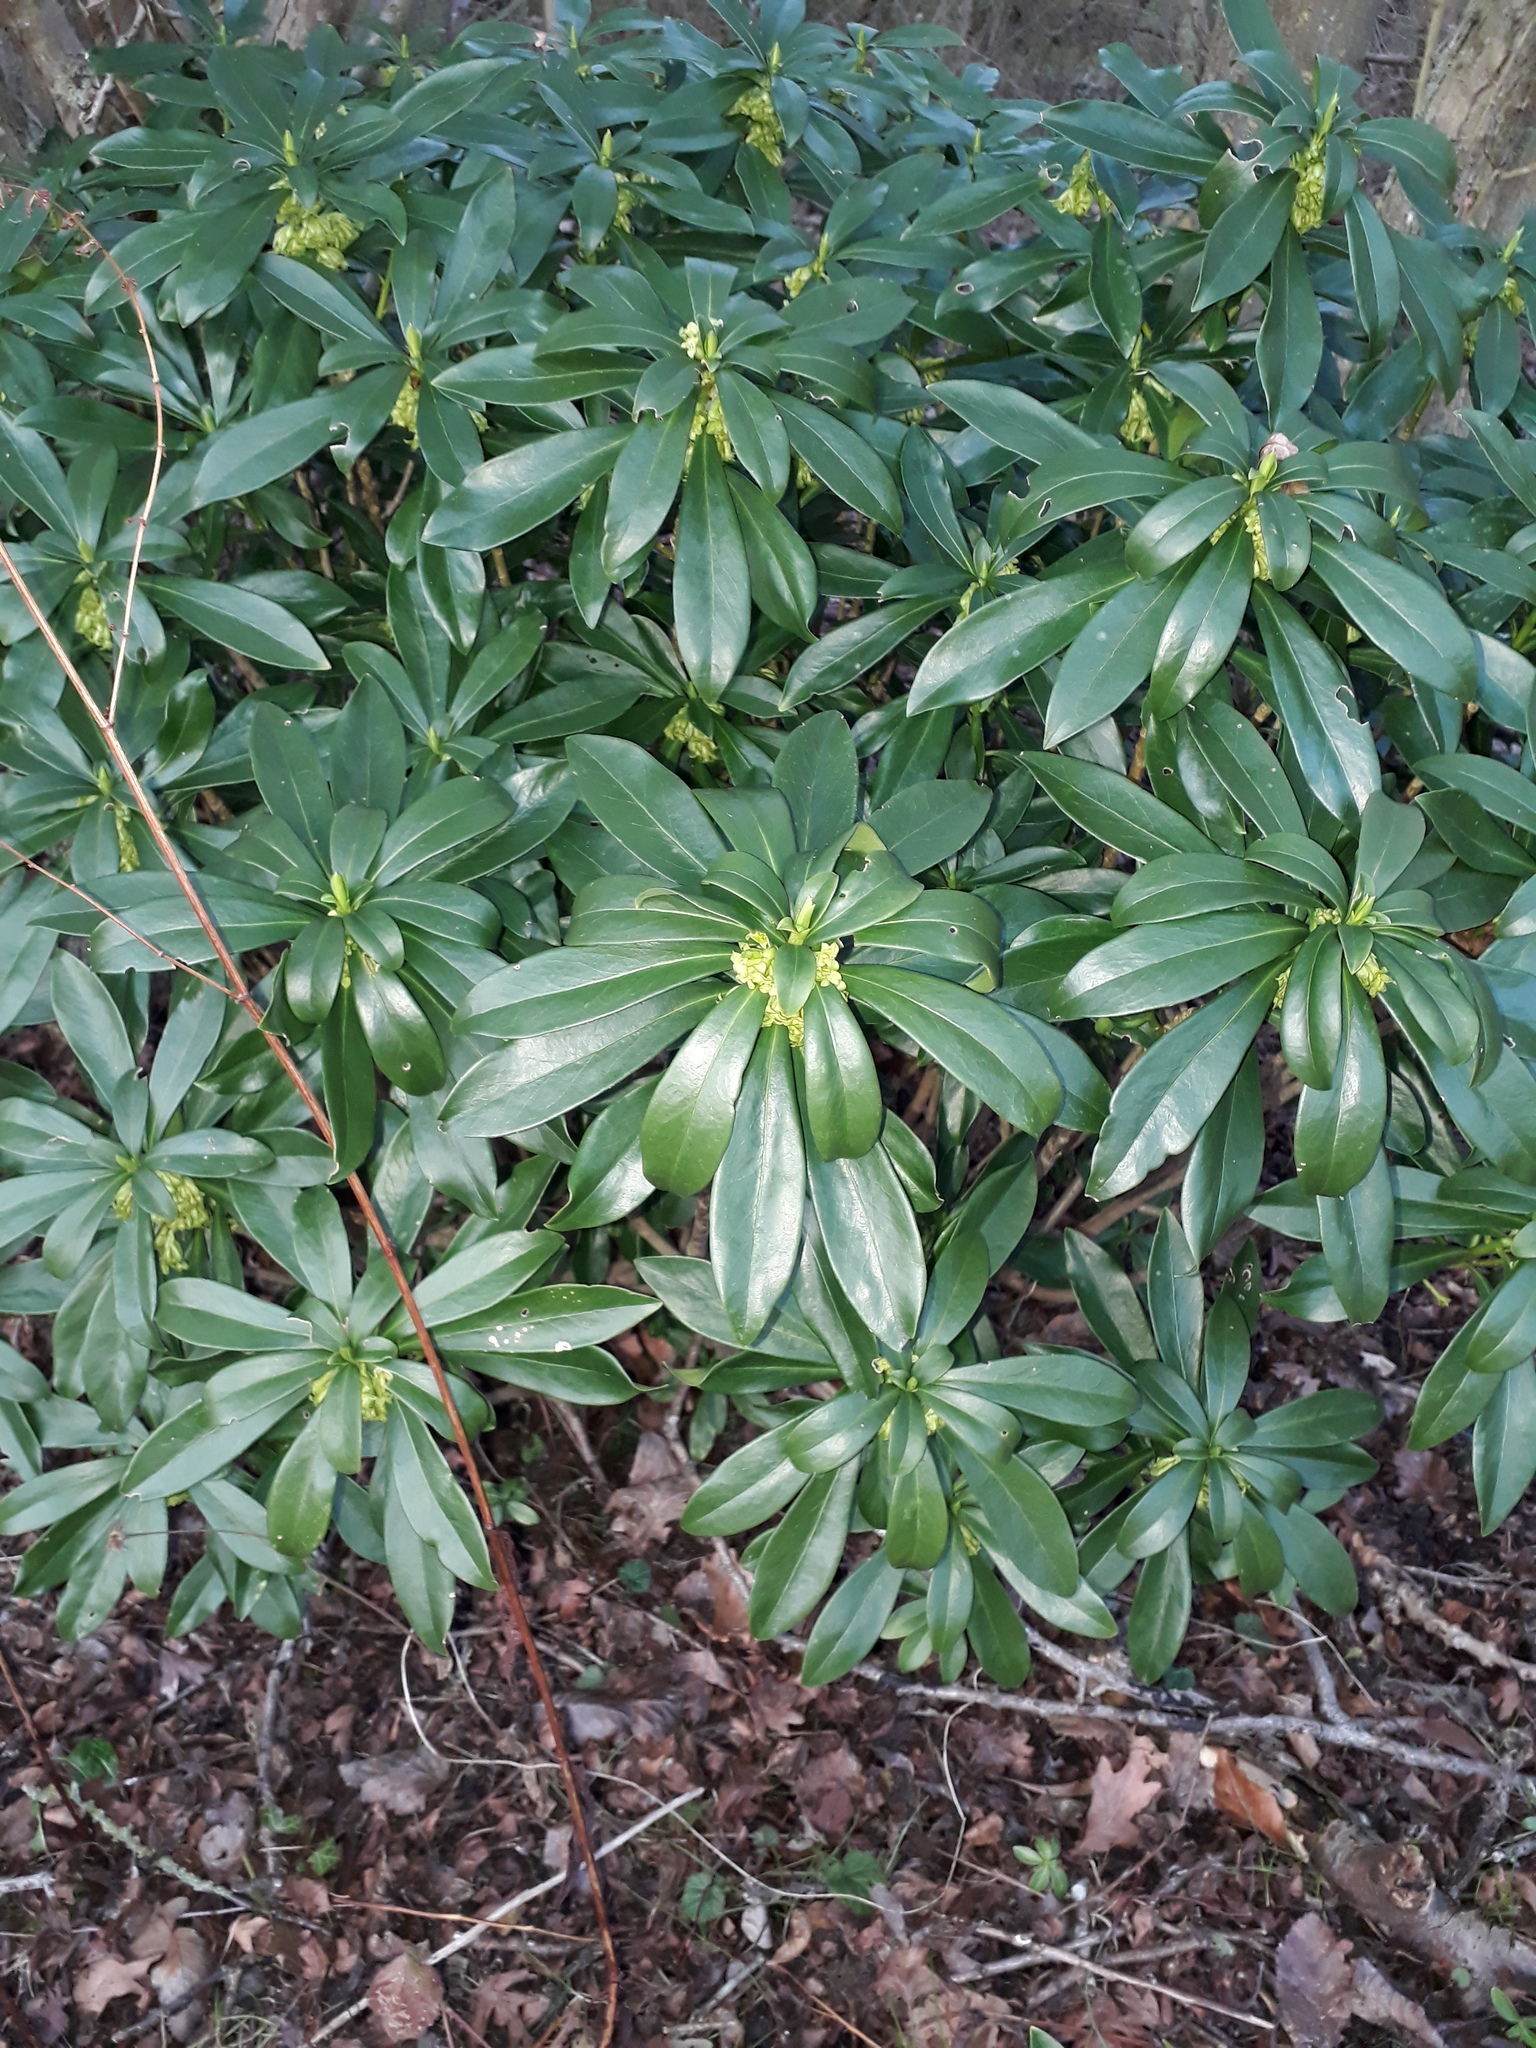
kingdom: Plantae
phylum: Tracheophyta
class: Magnoliopsida
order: Malvales
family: Thymelaeaceae
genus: Daphne
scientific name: Daphne laureola
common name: Spurge-laurel
